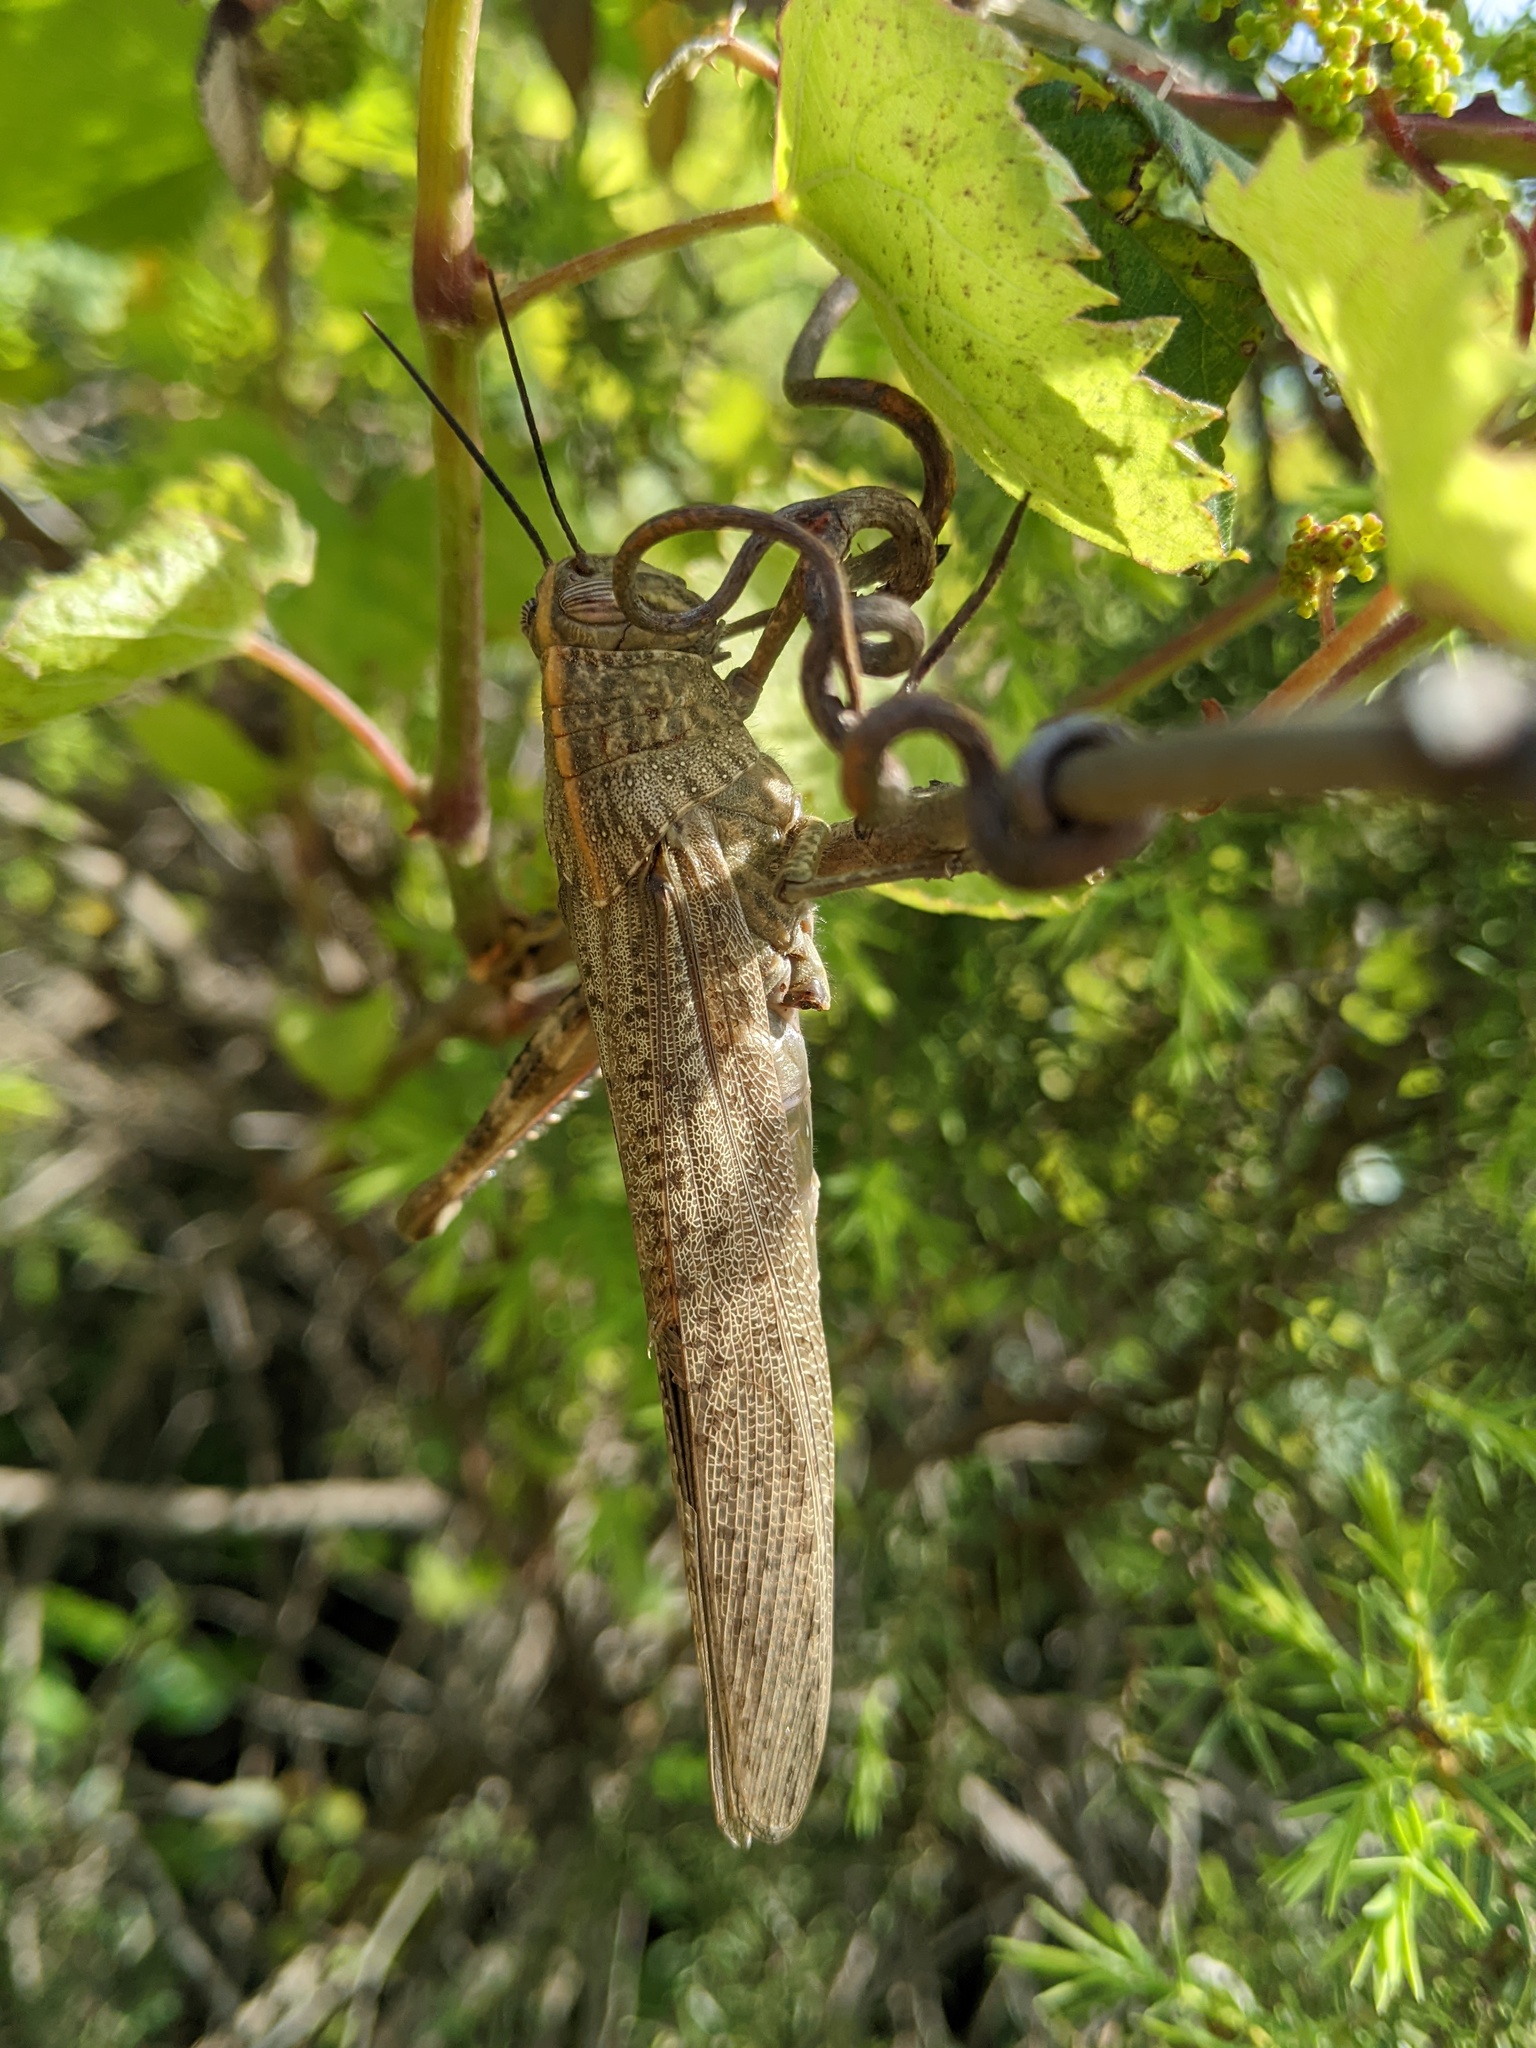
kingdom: Animalia
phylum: Arthropoda
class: Insecta
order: Orthoptera
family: Acrididae
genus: Anacridium
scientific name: Anacridium aegyptium
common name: Egyptian grasshopper
